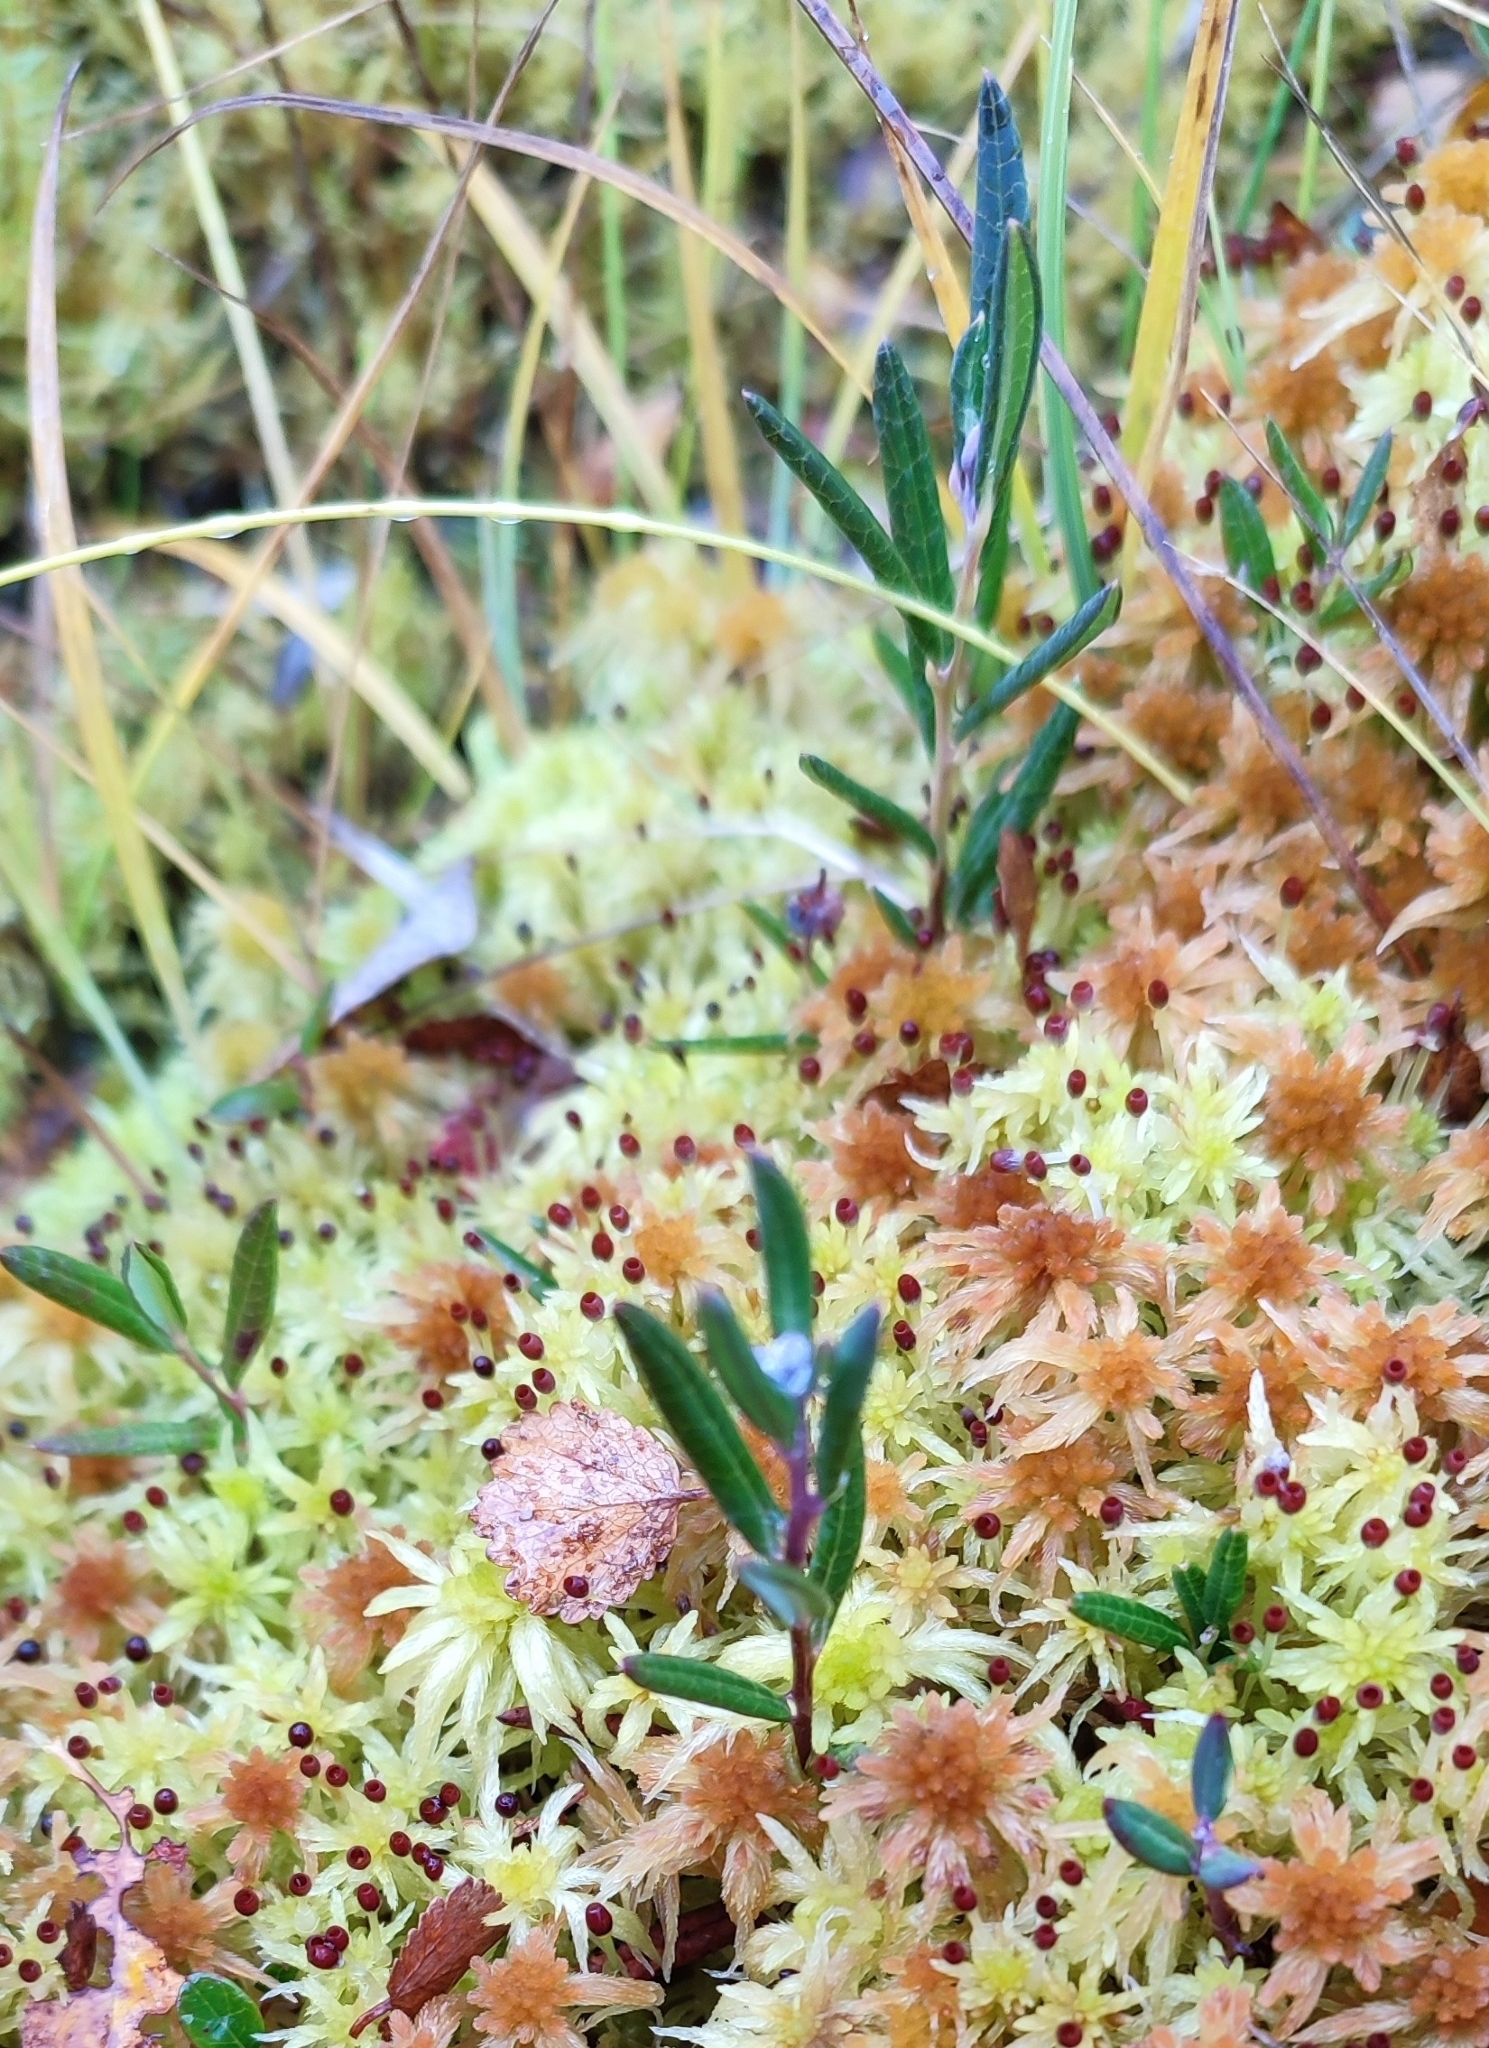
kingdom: Plantae
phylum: Tracheophyta
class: Magnoliopsida
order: Ericales
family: Ericaceae
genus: Andromeda
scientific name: Andromeda polifolia
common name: Bog-rosemary
